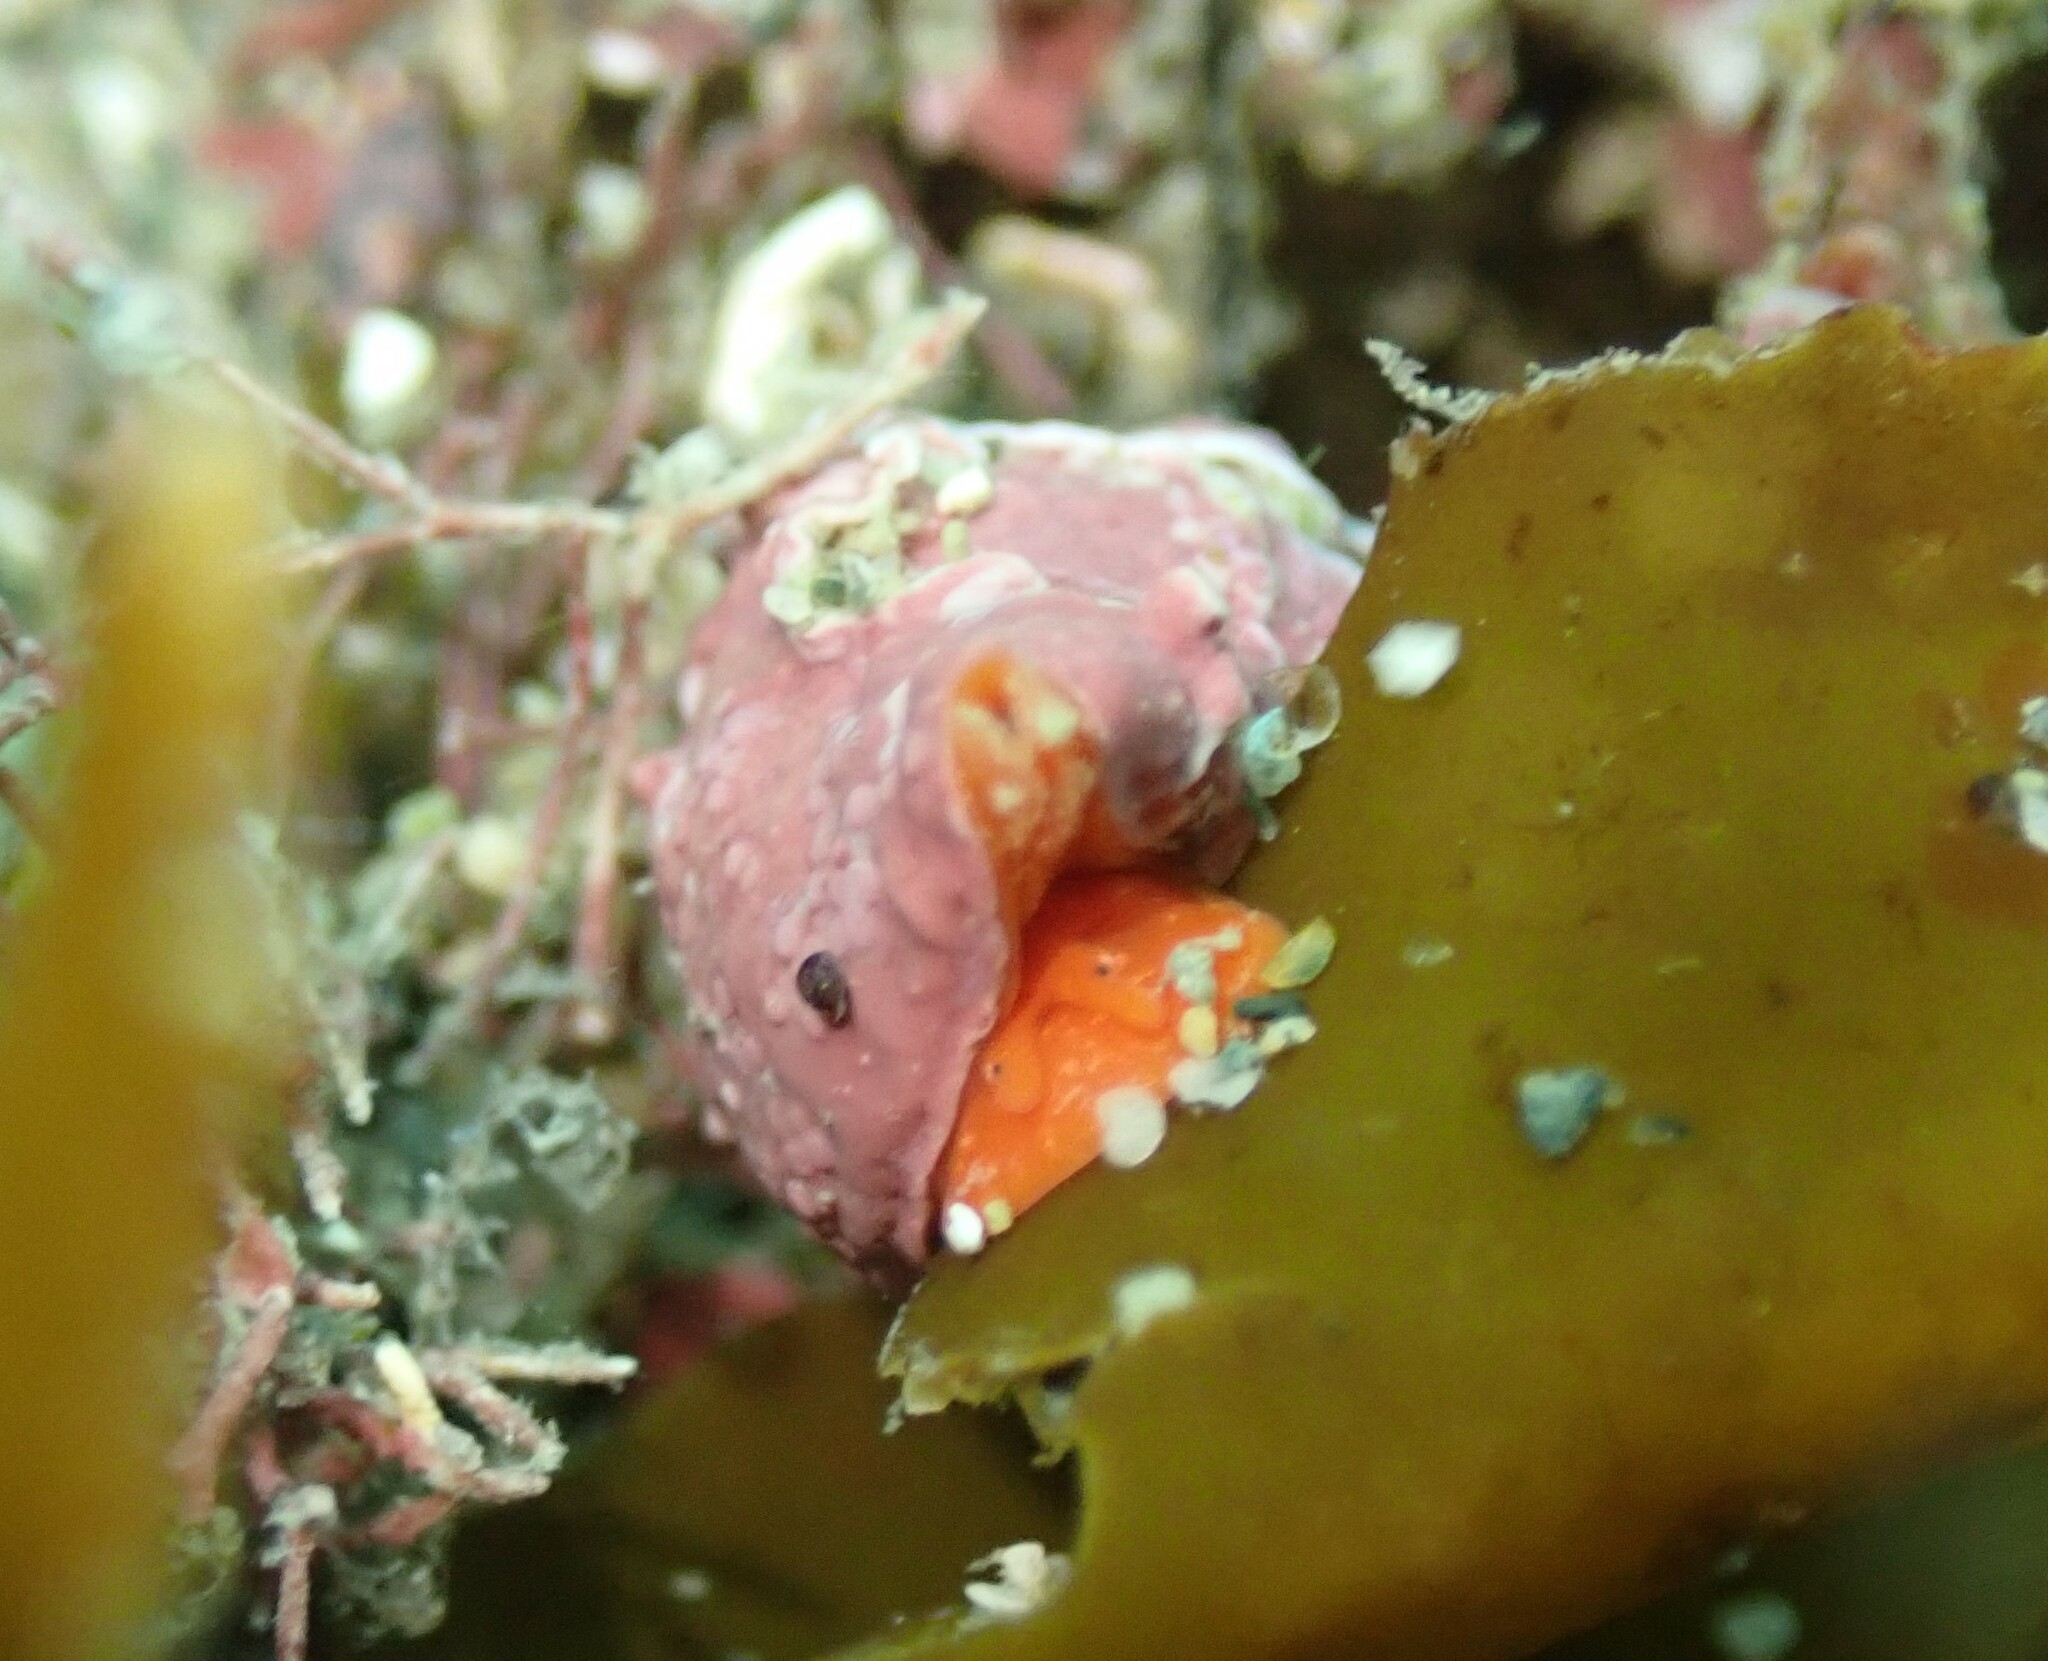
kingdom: Animalia
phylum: Mollusca
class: Gastropoda
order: Neogastropoda
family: Fasciolariidae
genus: Taron
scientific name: Taron dubius
